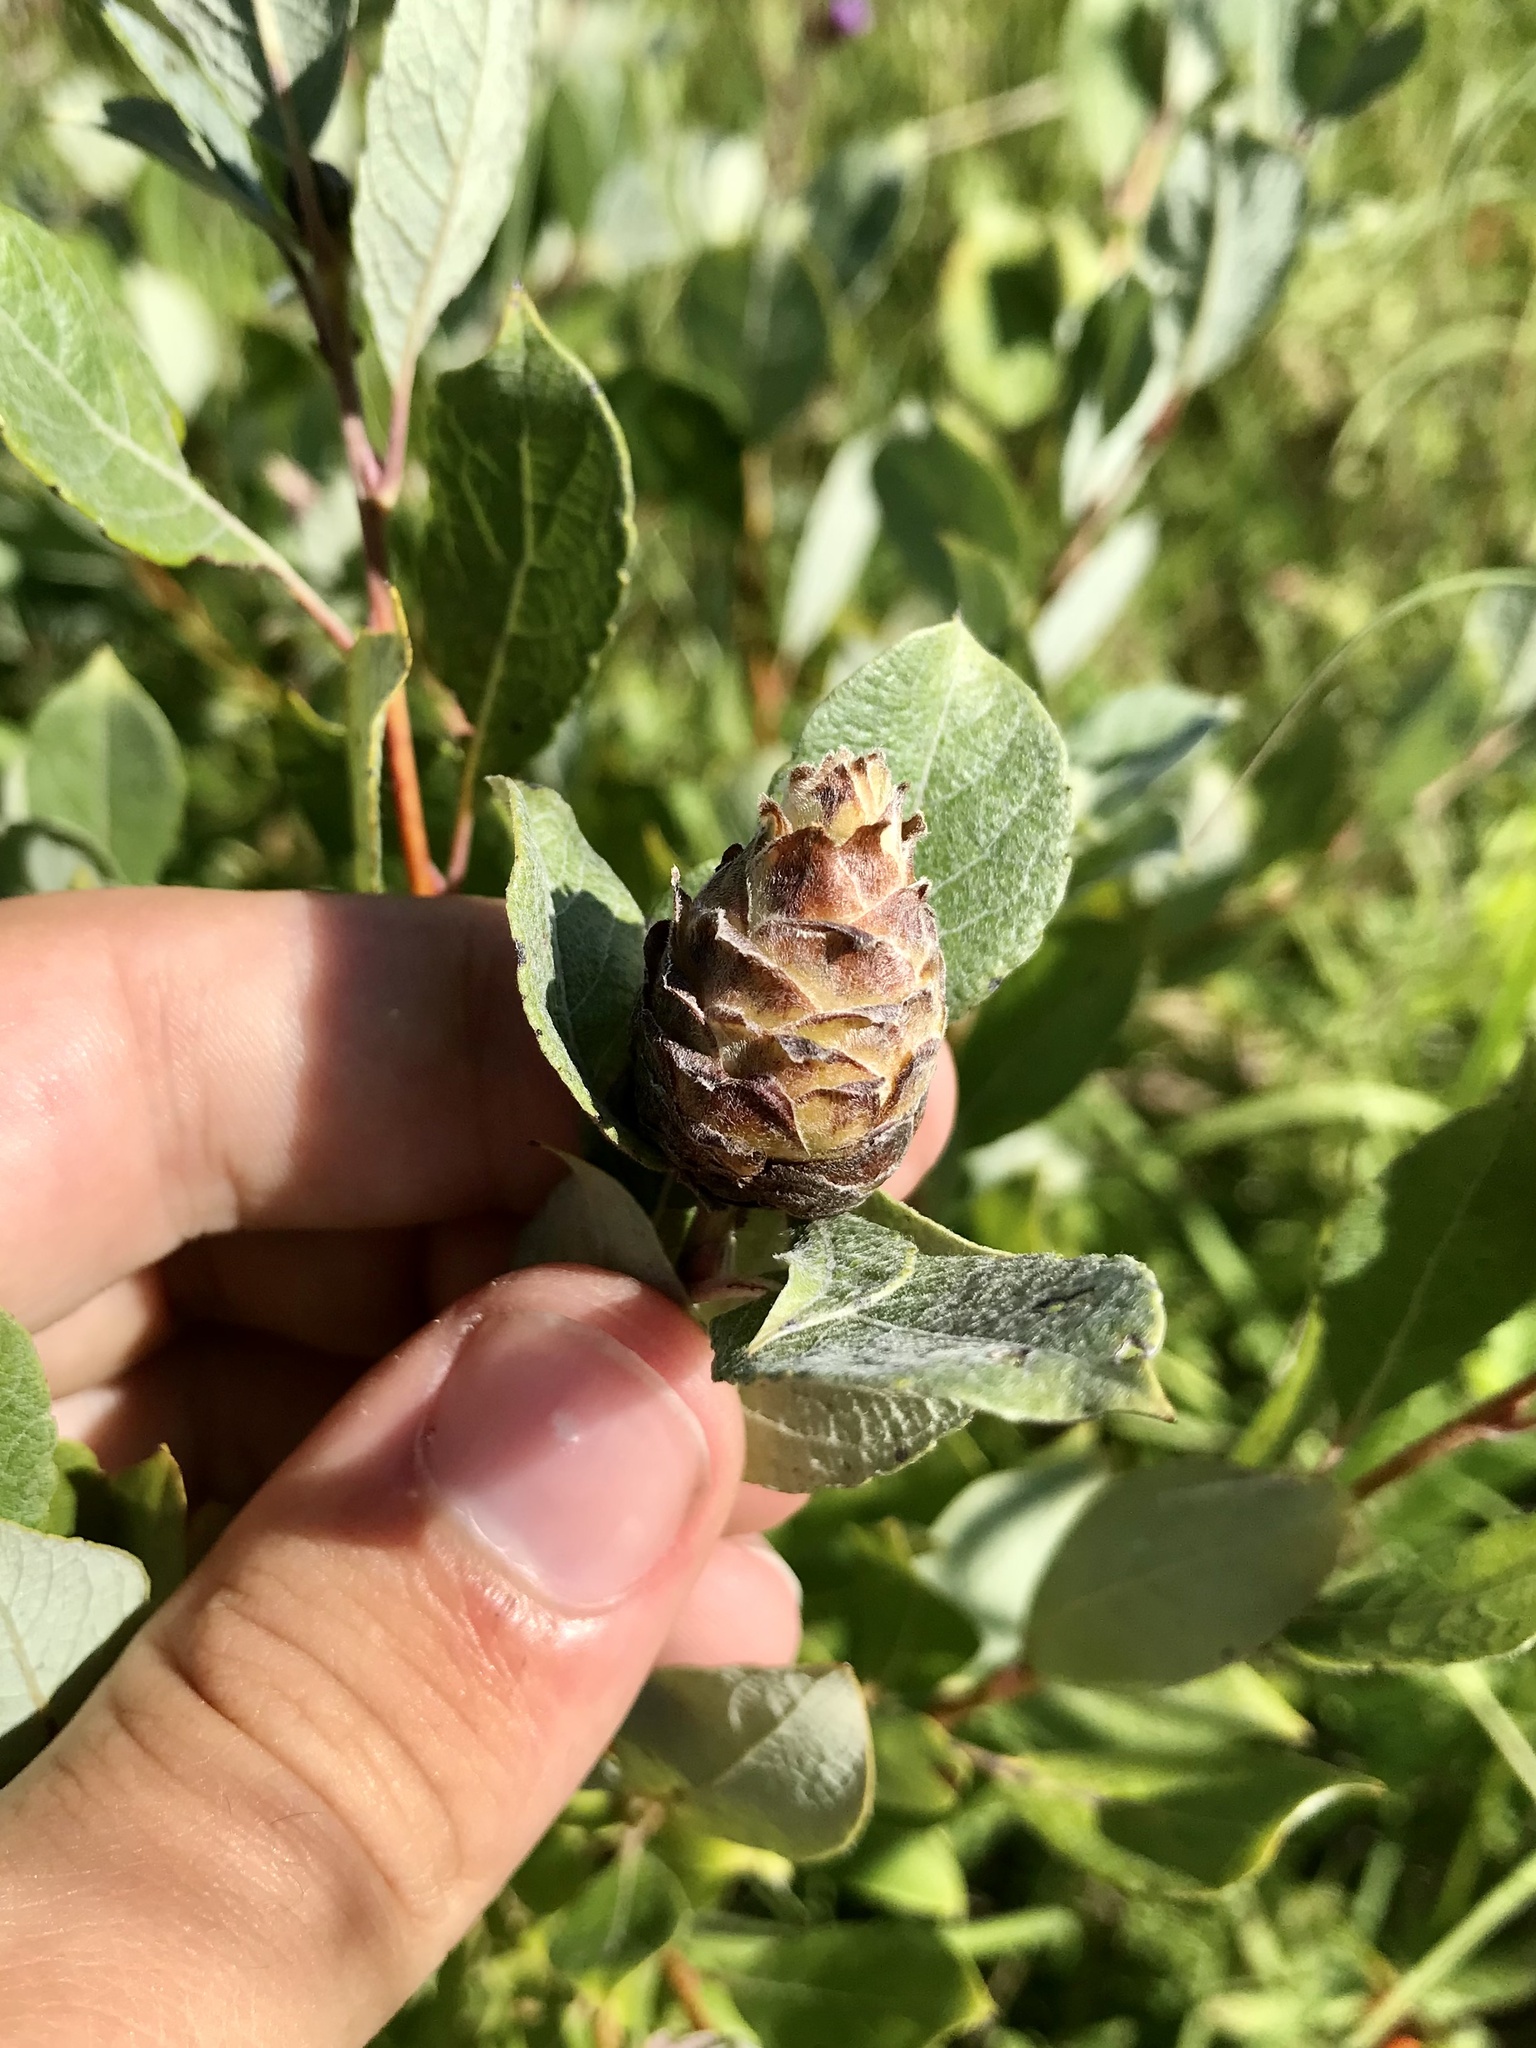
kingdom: Animalia
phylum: Arthropoda
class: Insecta
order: Diptera
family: Cecidomyiidae
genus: Rabdophaga
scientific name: Rabdophaga strobiloides
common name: Willow pinecone gall midge
